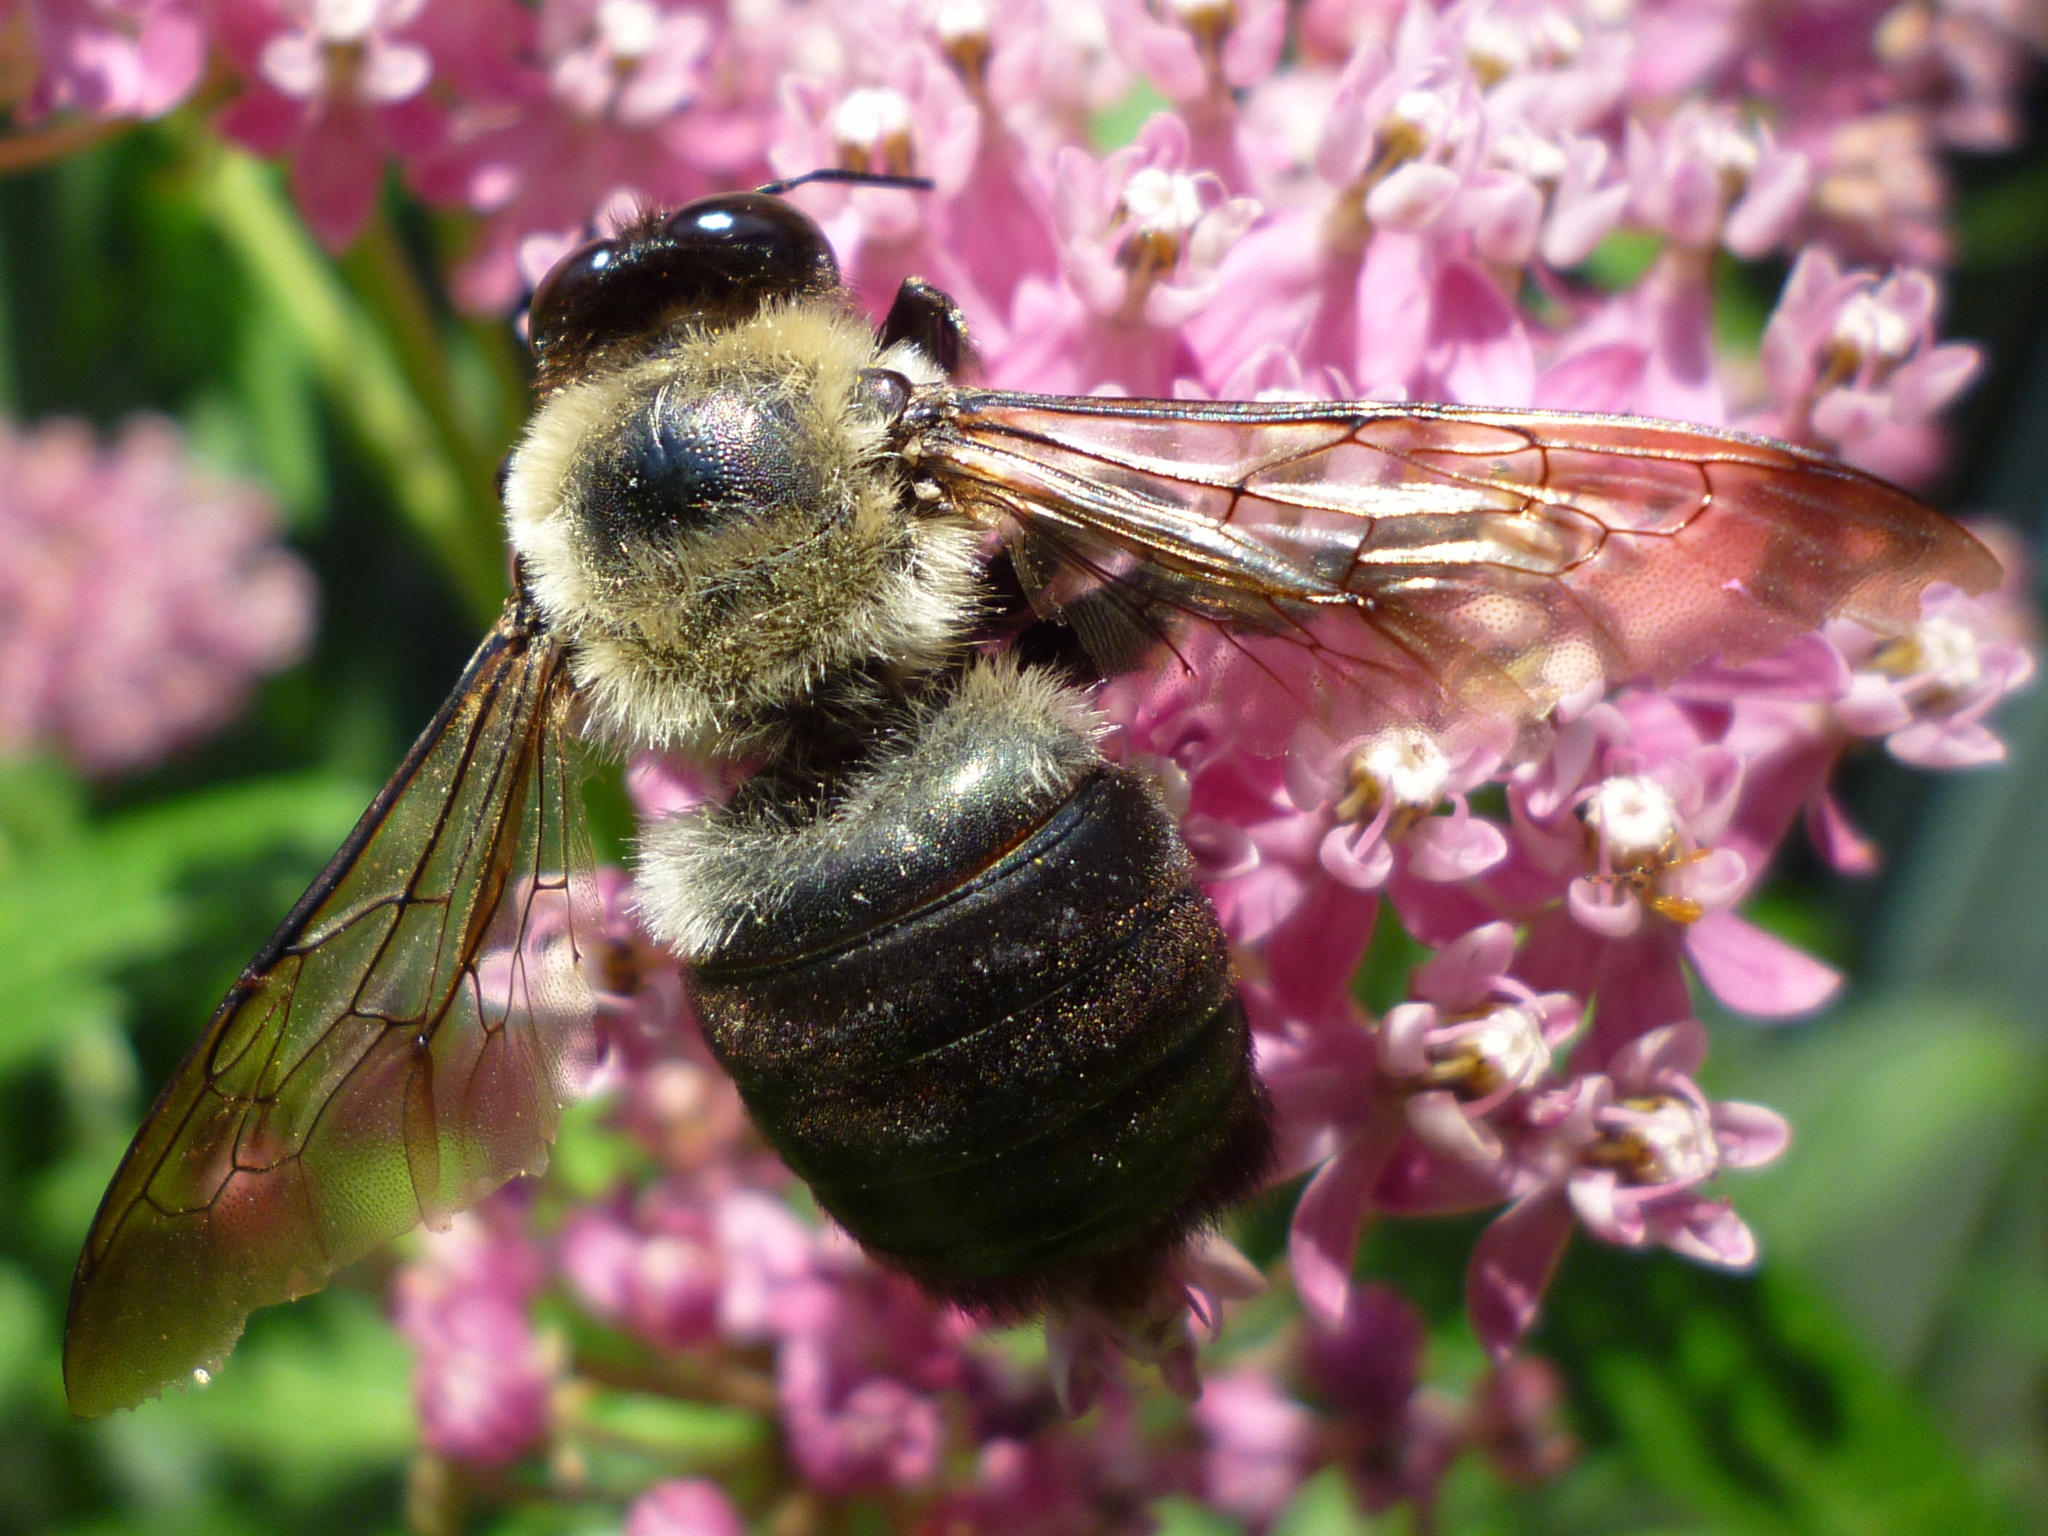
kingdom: Animalia
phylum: Arthropoda
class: Insecta
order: Hymenoptera
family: Apidae
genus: Xylocopa
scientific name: Xylocopa virginica
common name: Carpenter bee
